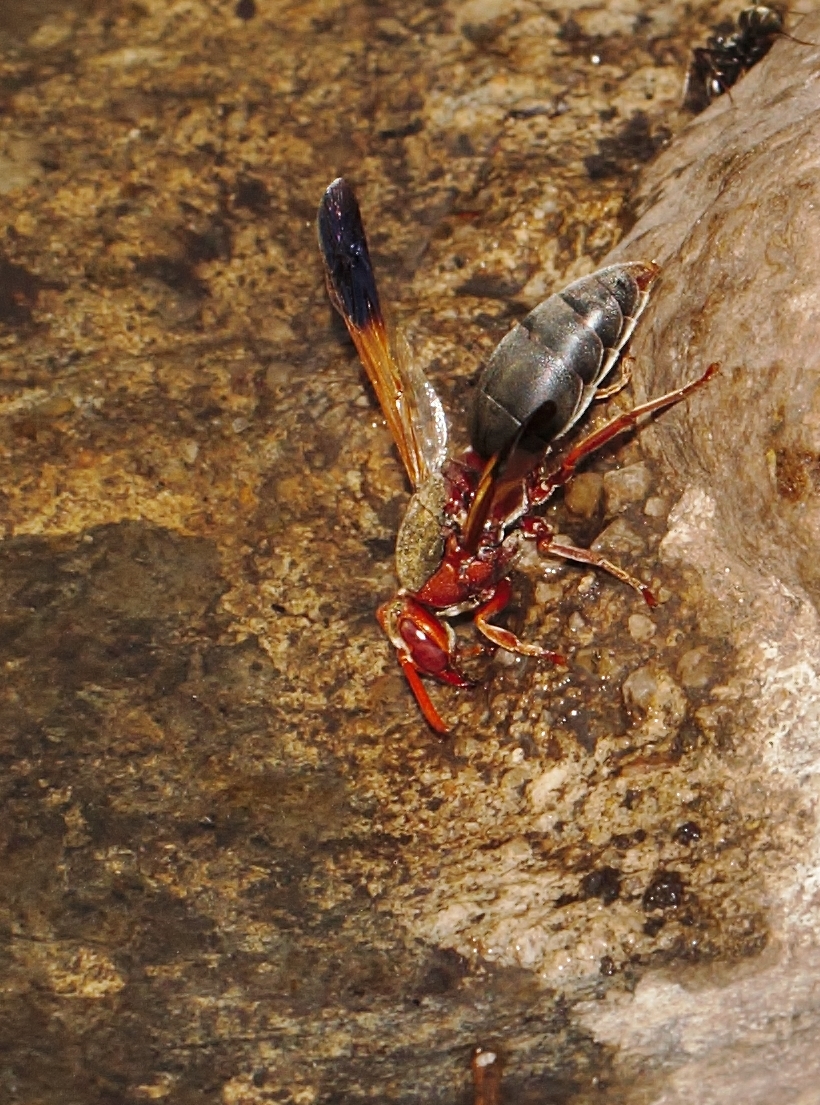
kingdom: Animalia
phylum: Arthropoda
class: Insecta
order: Hymenoptera
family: Eumenidae
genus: Rhynchium
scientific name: Rhynchium
